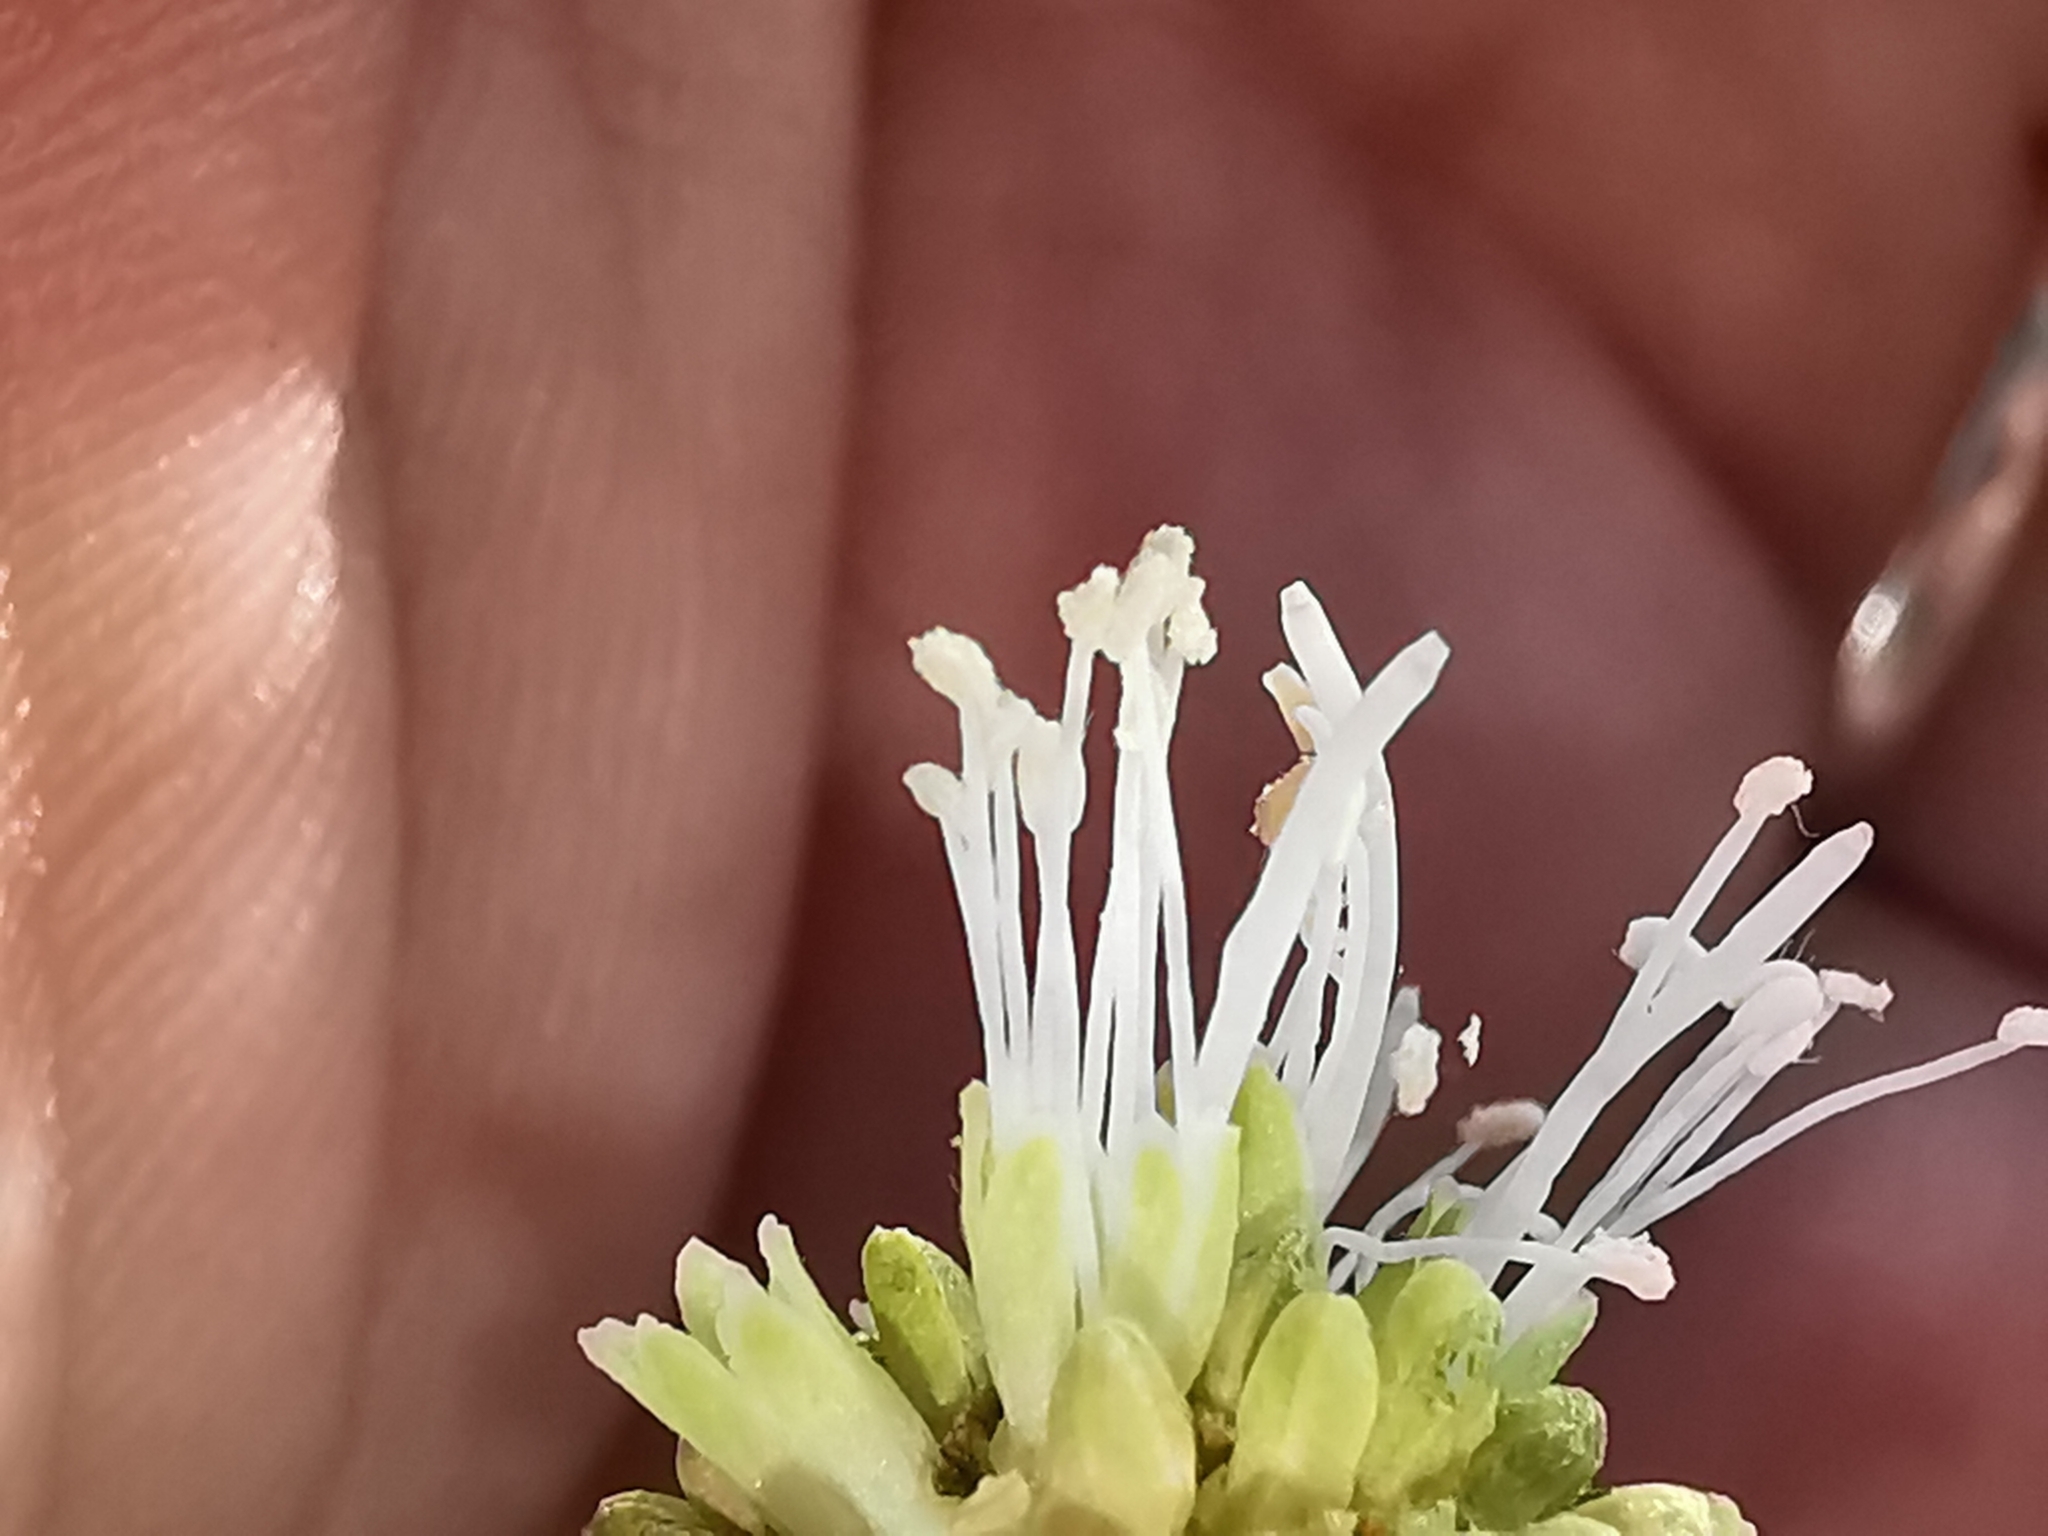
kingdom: Plantae
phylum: Tracheophyta
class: Magnoliopsida
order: Fabales
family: Fabaceae
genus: Leucaena
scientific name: Leucaena leucocephala
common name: White leadtree
